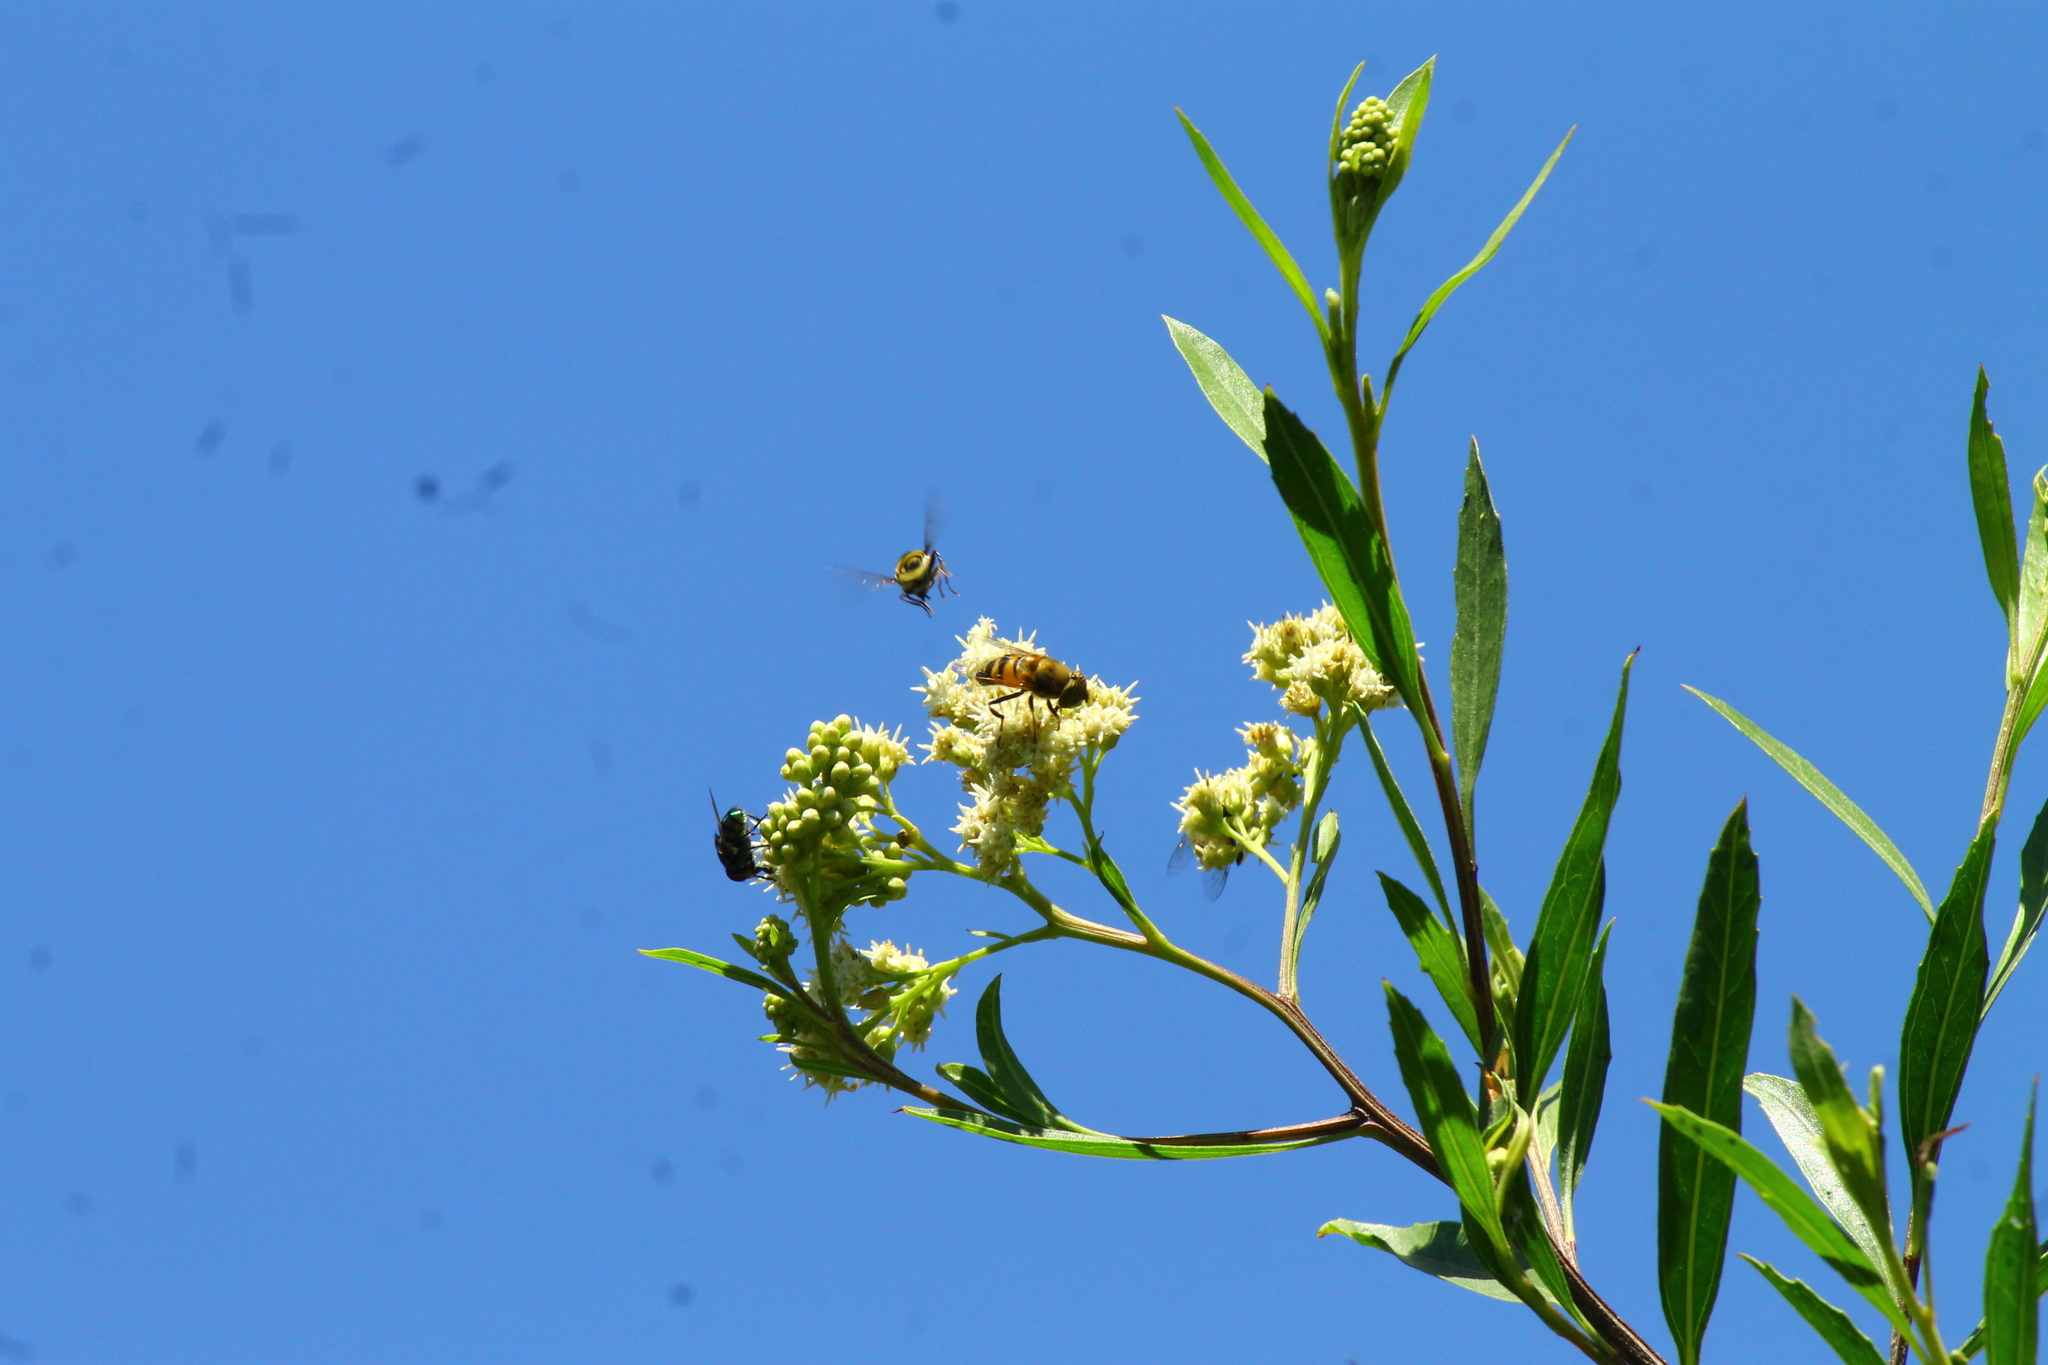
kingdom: Animalia
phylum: Arthropoda
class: Insecta
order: Diptera
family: Syrphidae
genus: Eristalinus
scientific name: Eristalinus taeniops
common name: Syrphid fly
